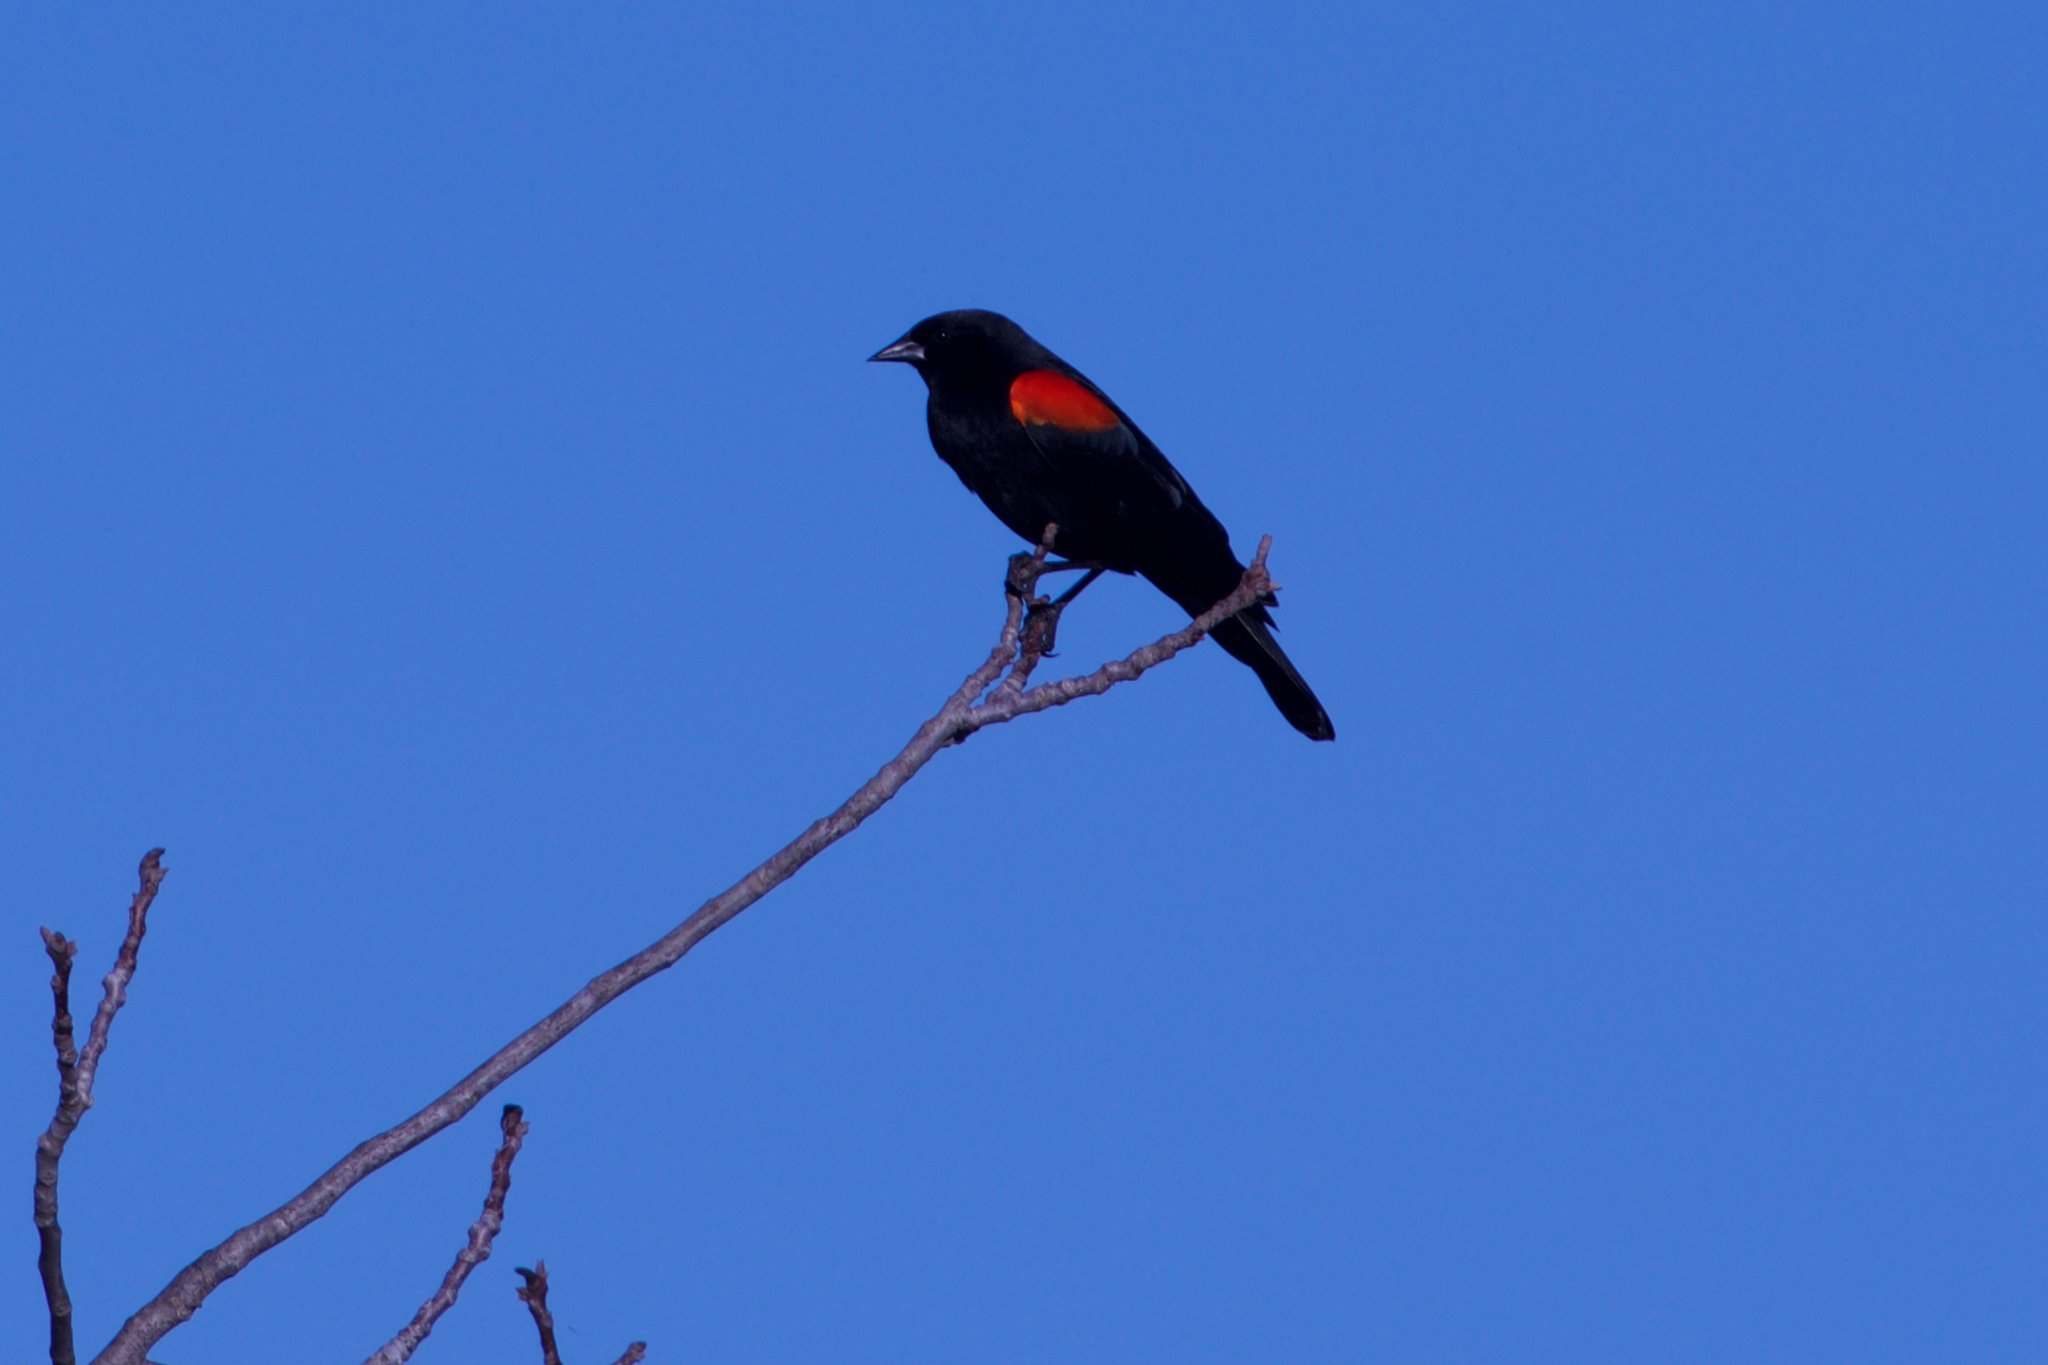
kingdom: Animalia
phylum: Chordata
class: Aves
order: Passeriformes
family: Icteridae
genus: Agelaius
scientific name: Agelaius phoeniceus
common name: Red-winged blackbird
